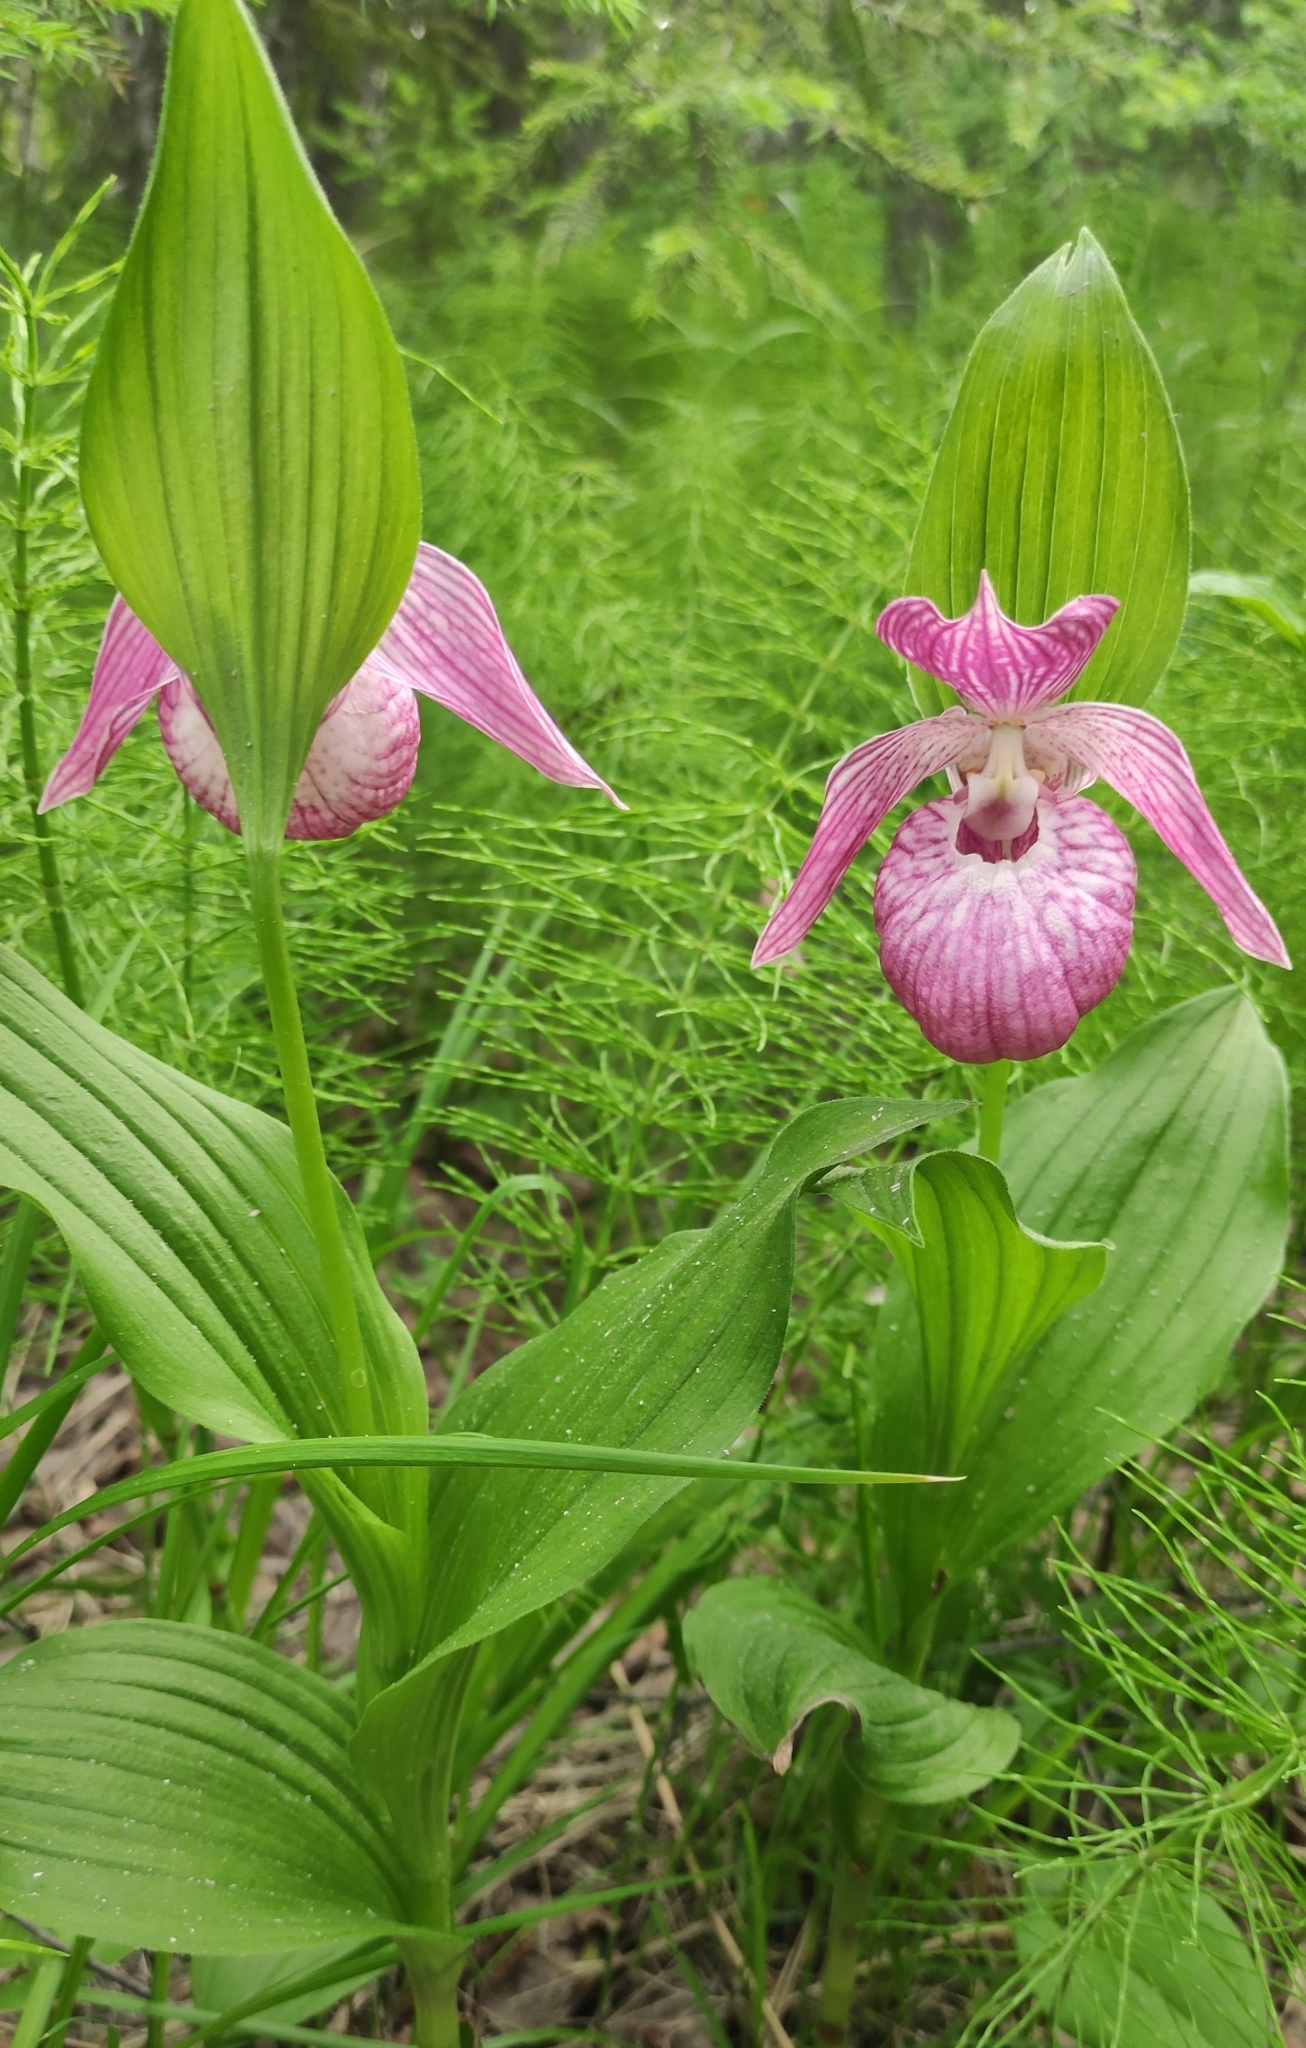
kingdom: Plantae
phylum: Tracheophyta
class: Liliopsida
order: Asparagales
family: Orchidaceae
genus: Cypripedium
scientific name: Cypripedium macranthos
